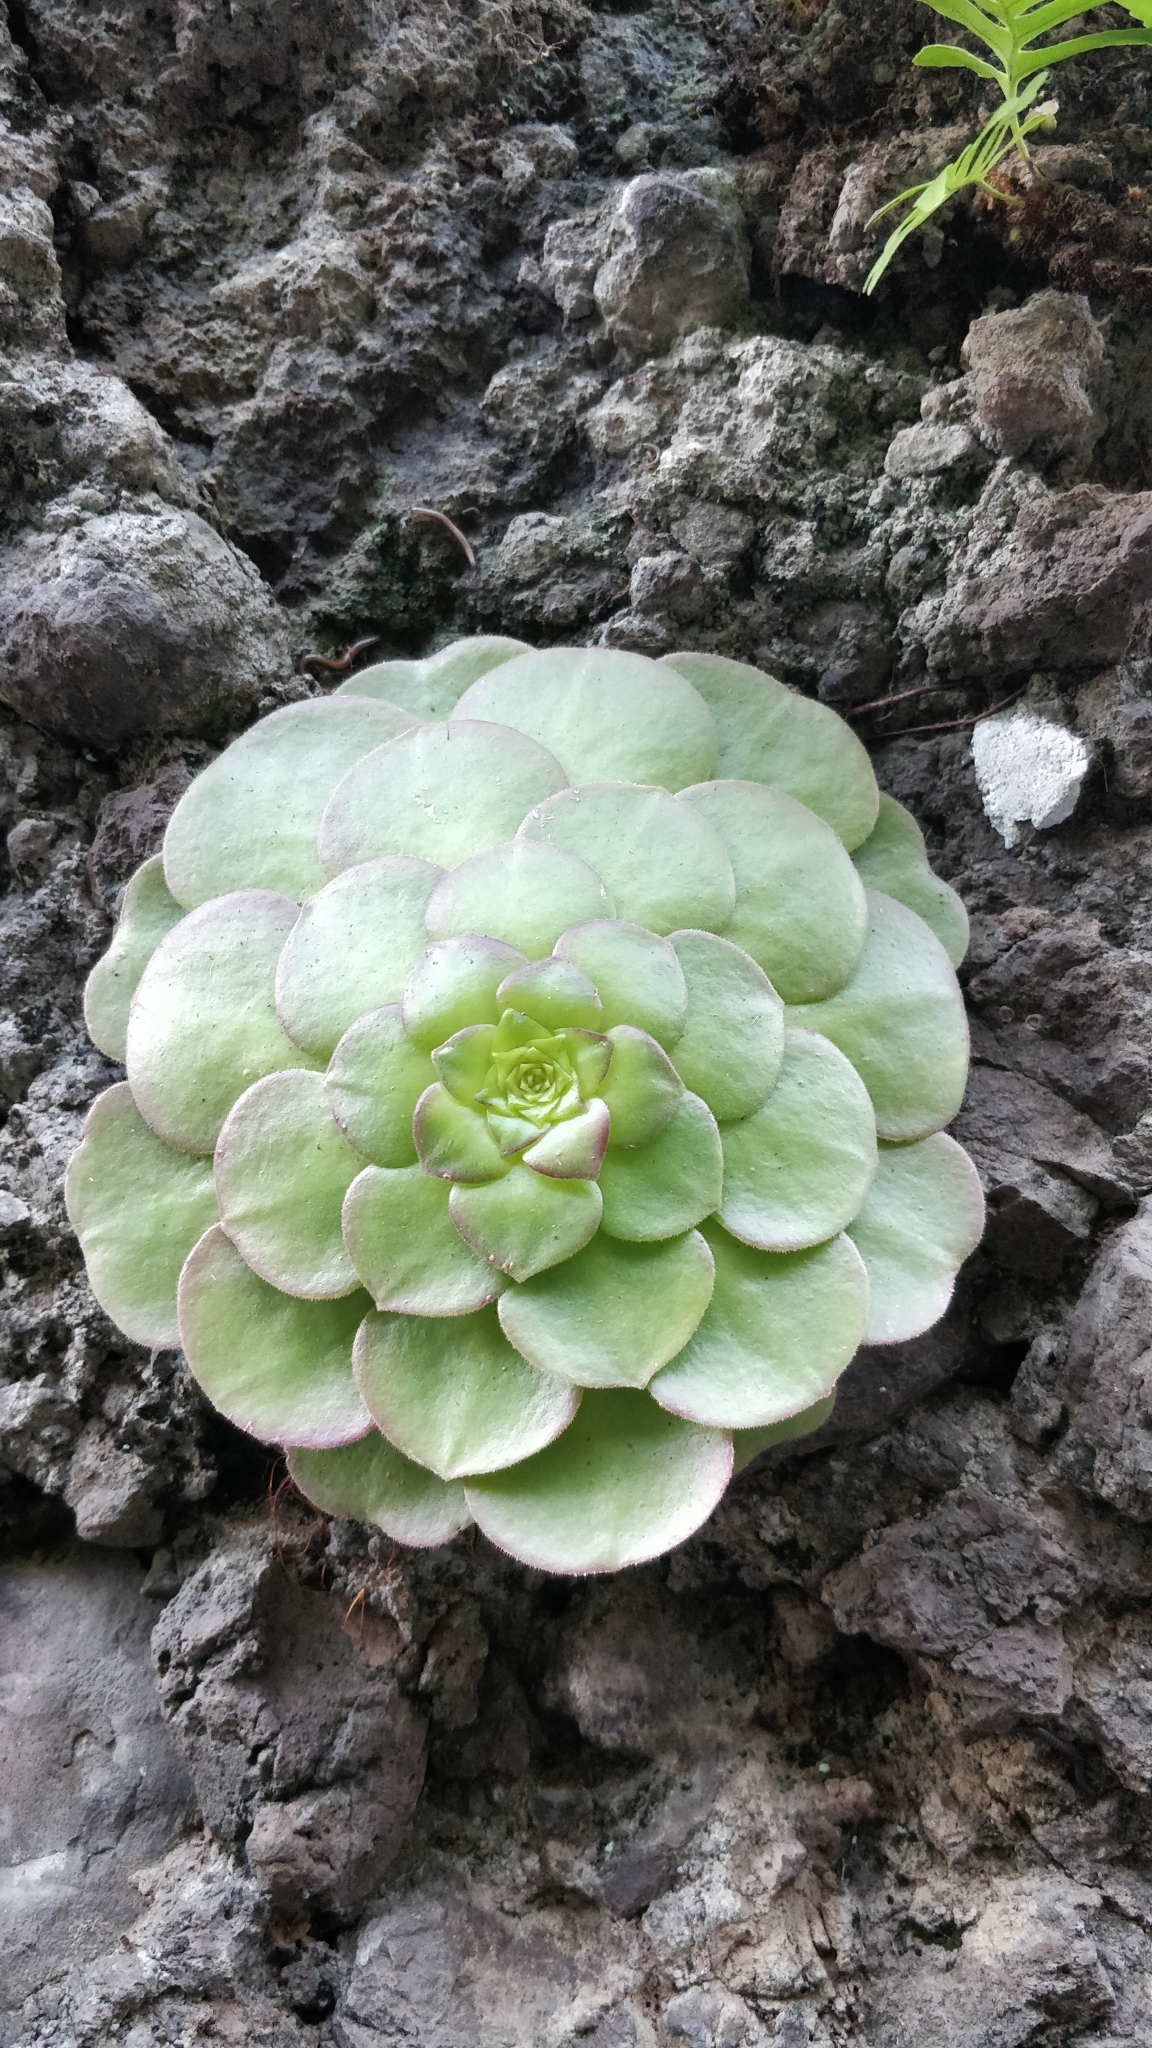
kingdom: Plantae
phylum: Tracheophyta
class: Magnoliopsida
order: Saxifragales
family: Crassulaceae
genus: Aeonium
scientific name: Aeonium glandulosum
